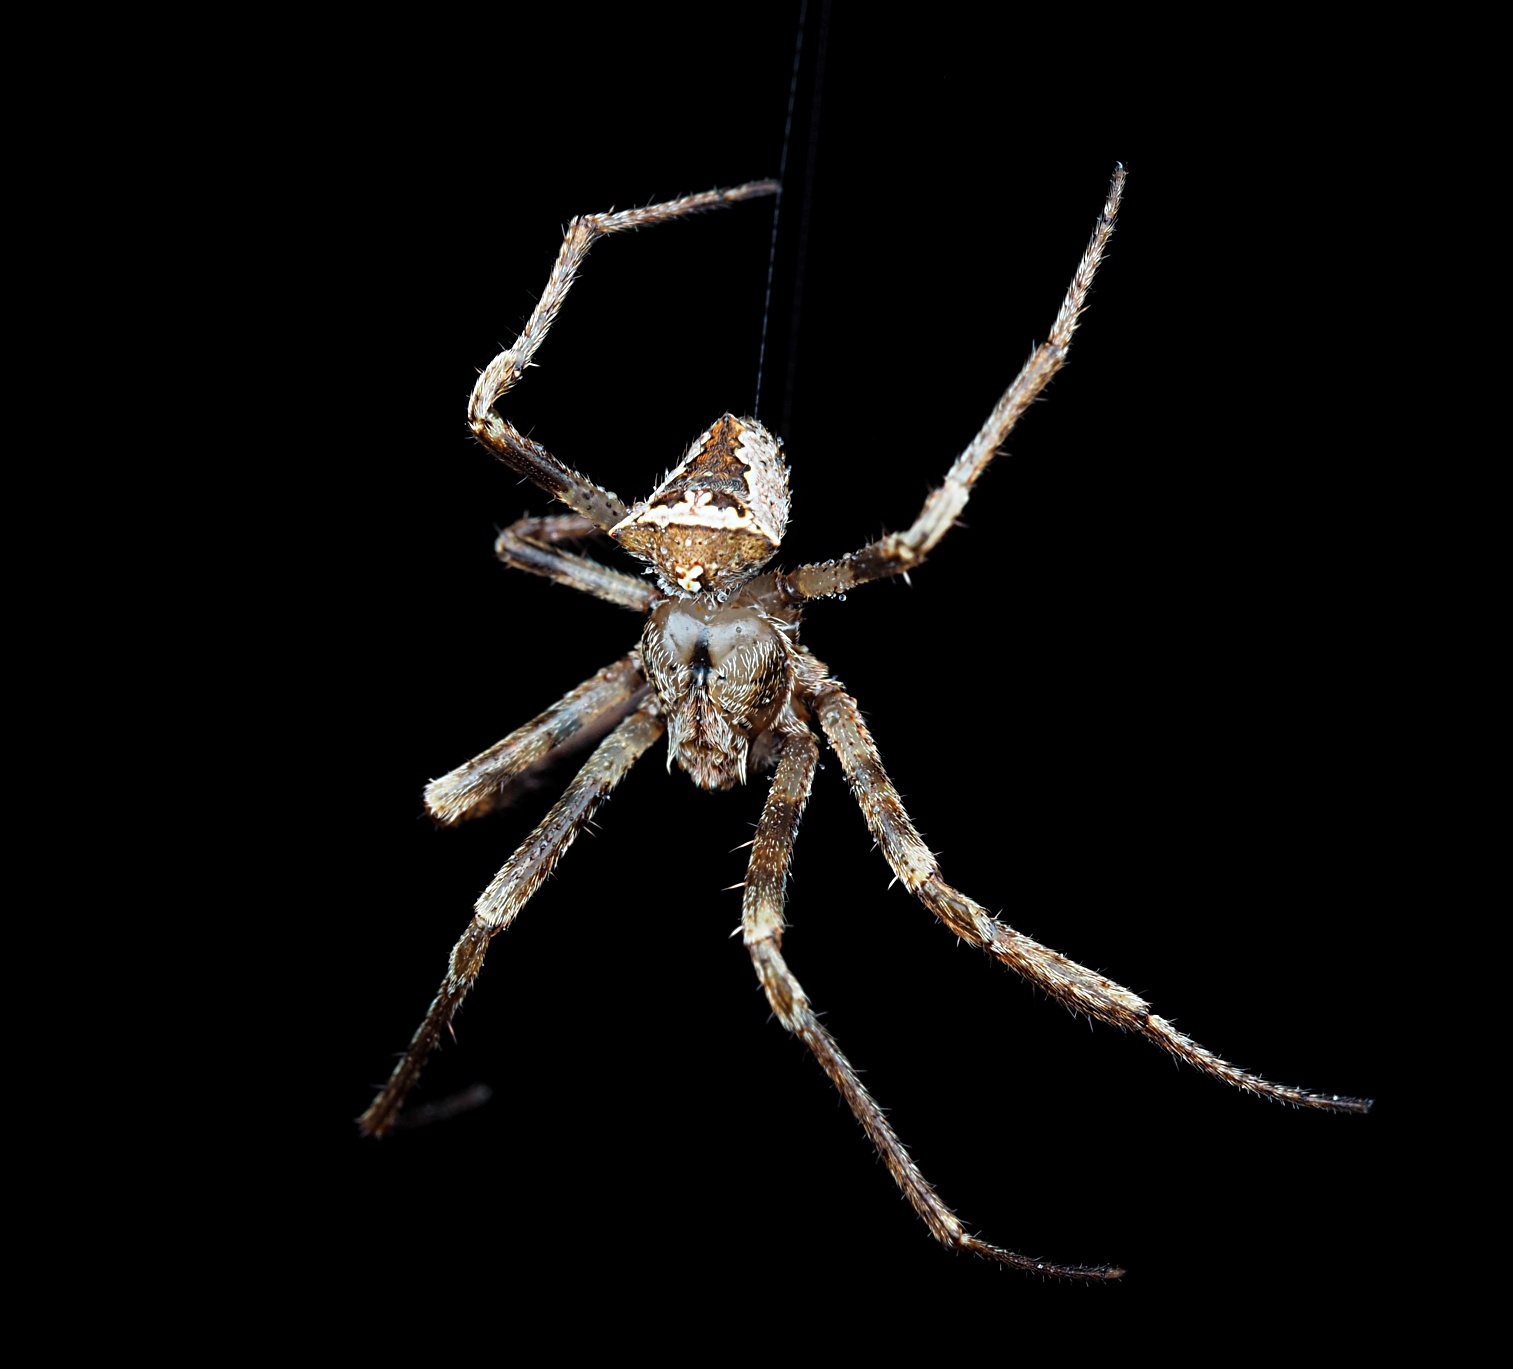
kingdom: Animalia
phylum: Arthropoda
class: Arachnida
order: Araneae
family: Araneidae
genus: Novakiella
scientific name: Novakiella trituberculosa
